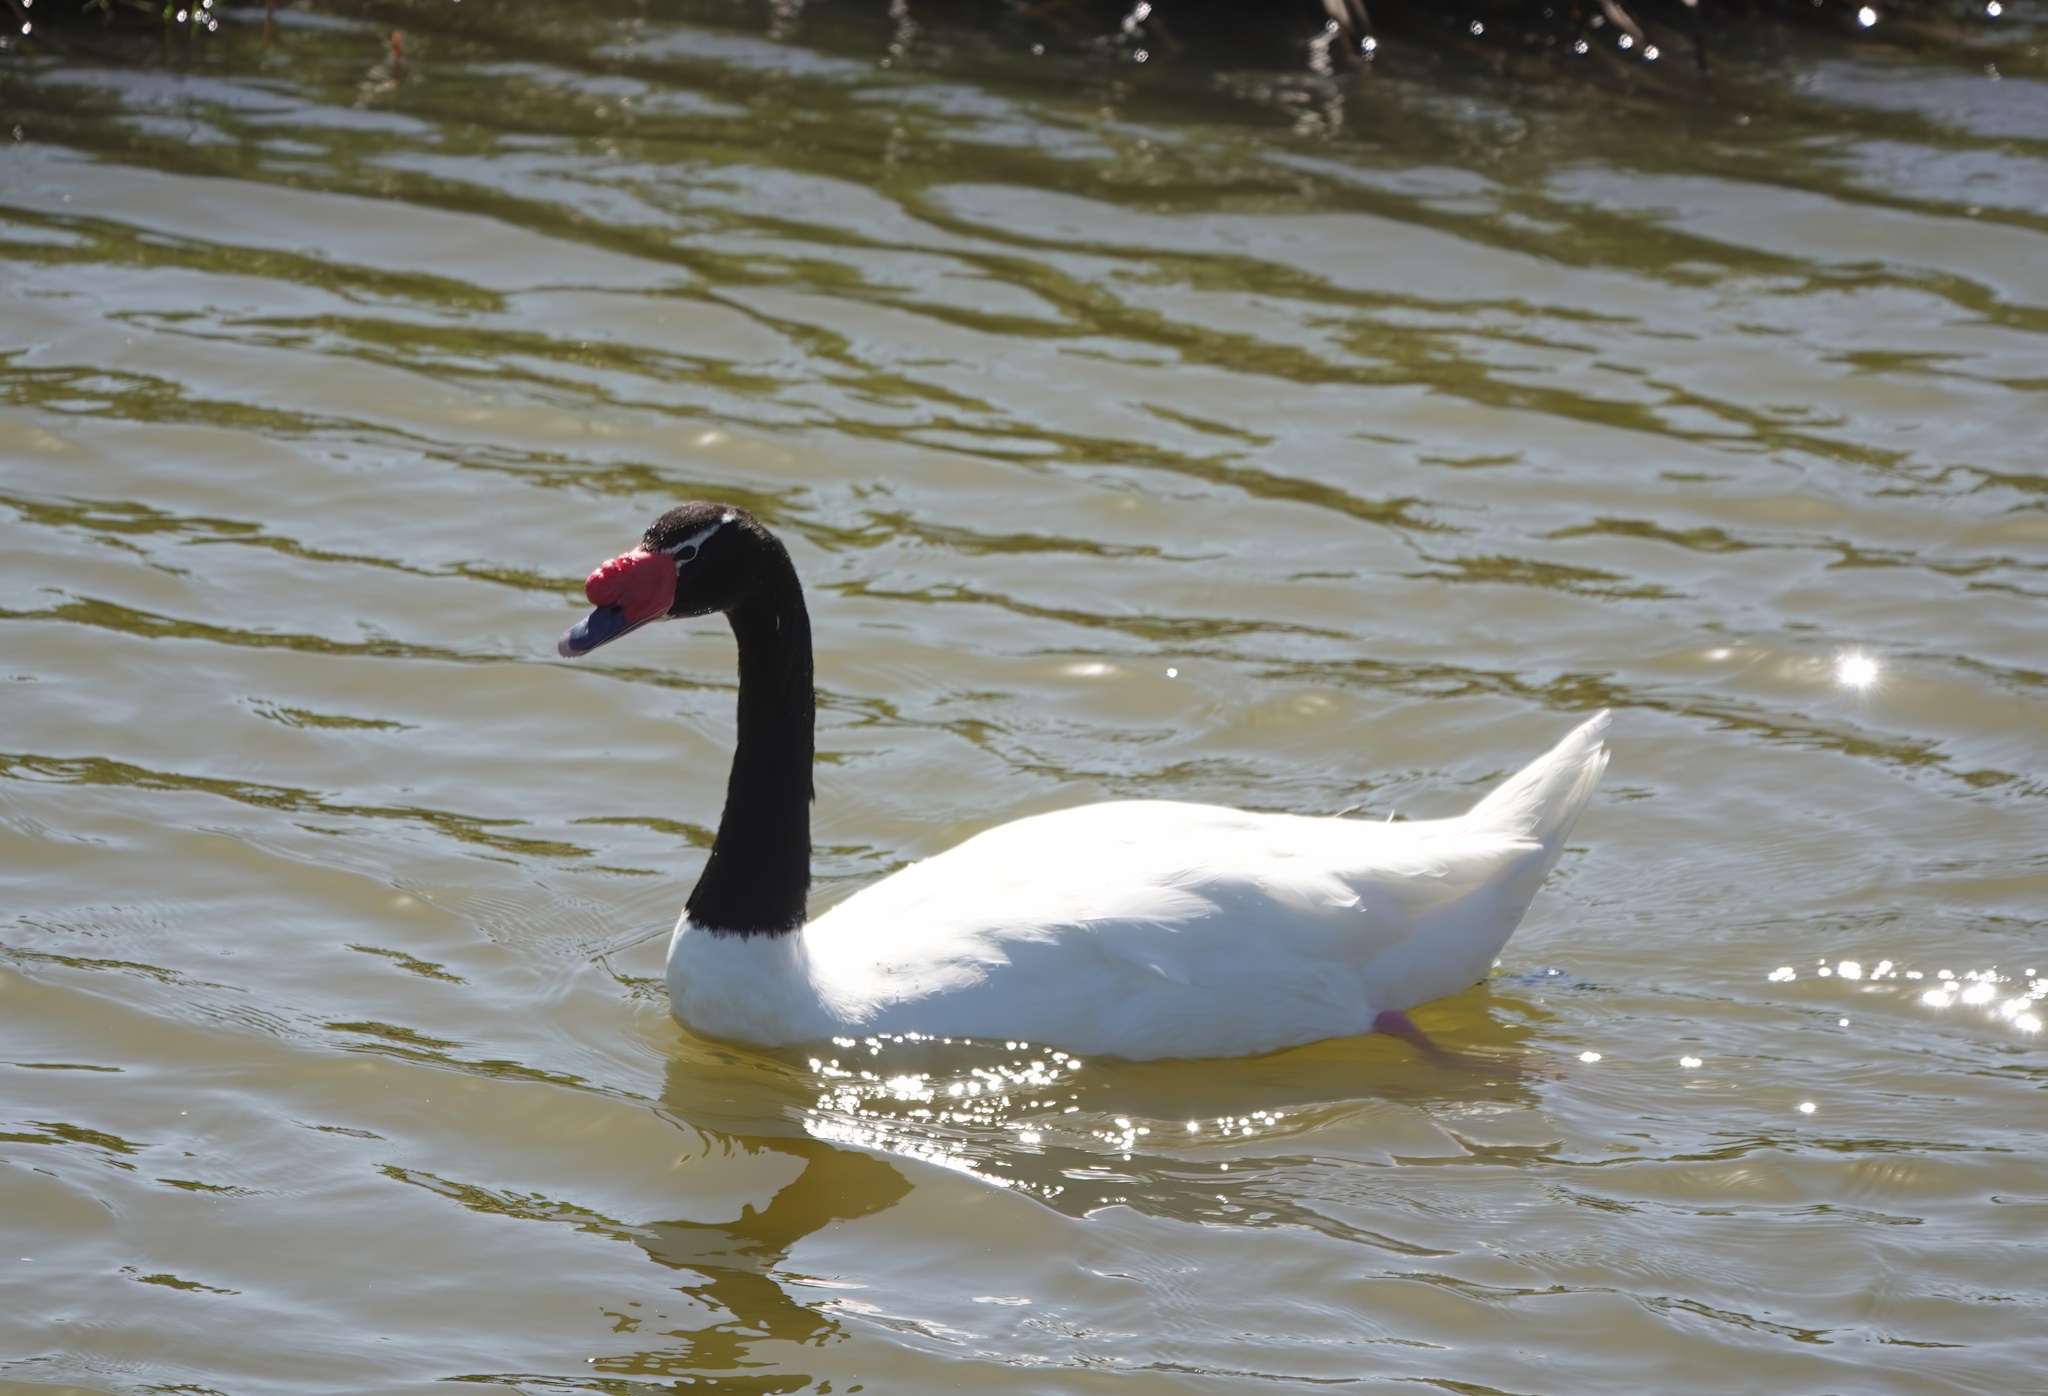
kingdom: Animalia
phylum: Chordata
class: Aves
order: Anseriformes
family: Anatidae
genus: Cygnus
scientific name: Cygnus melancoryphus
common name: Black-necked swan
